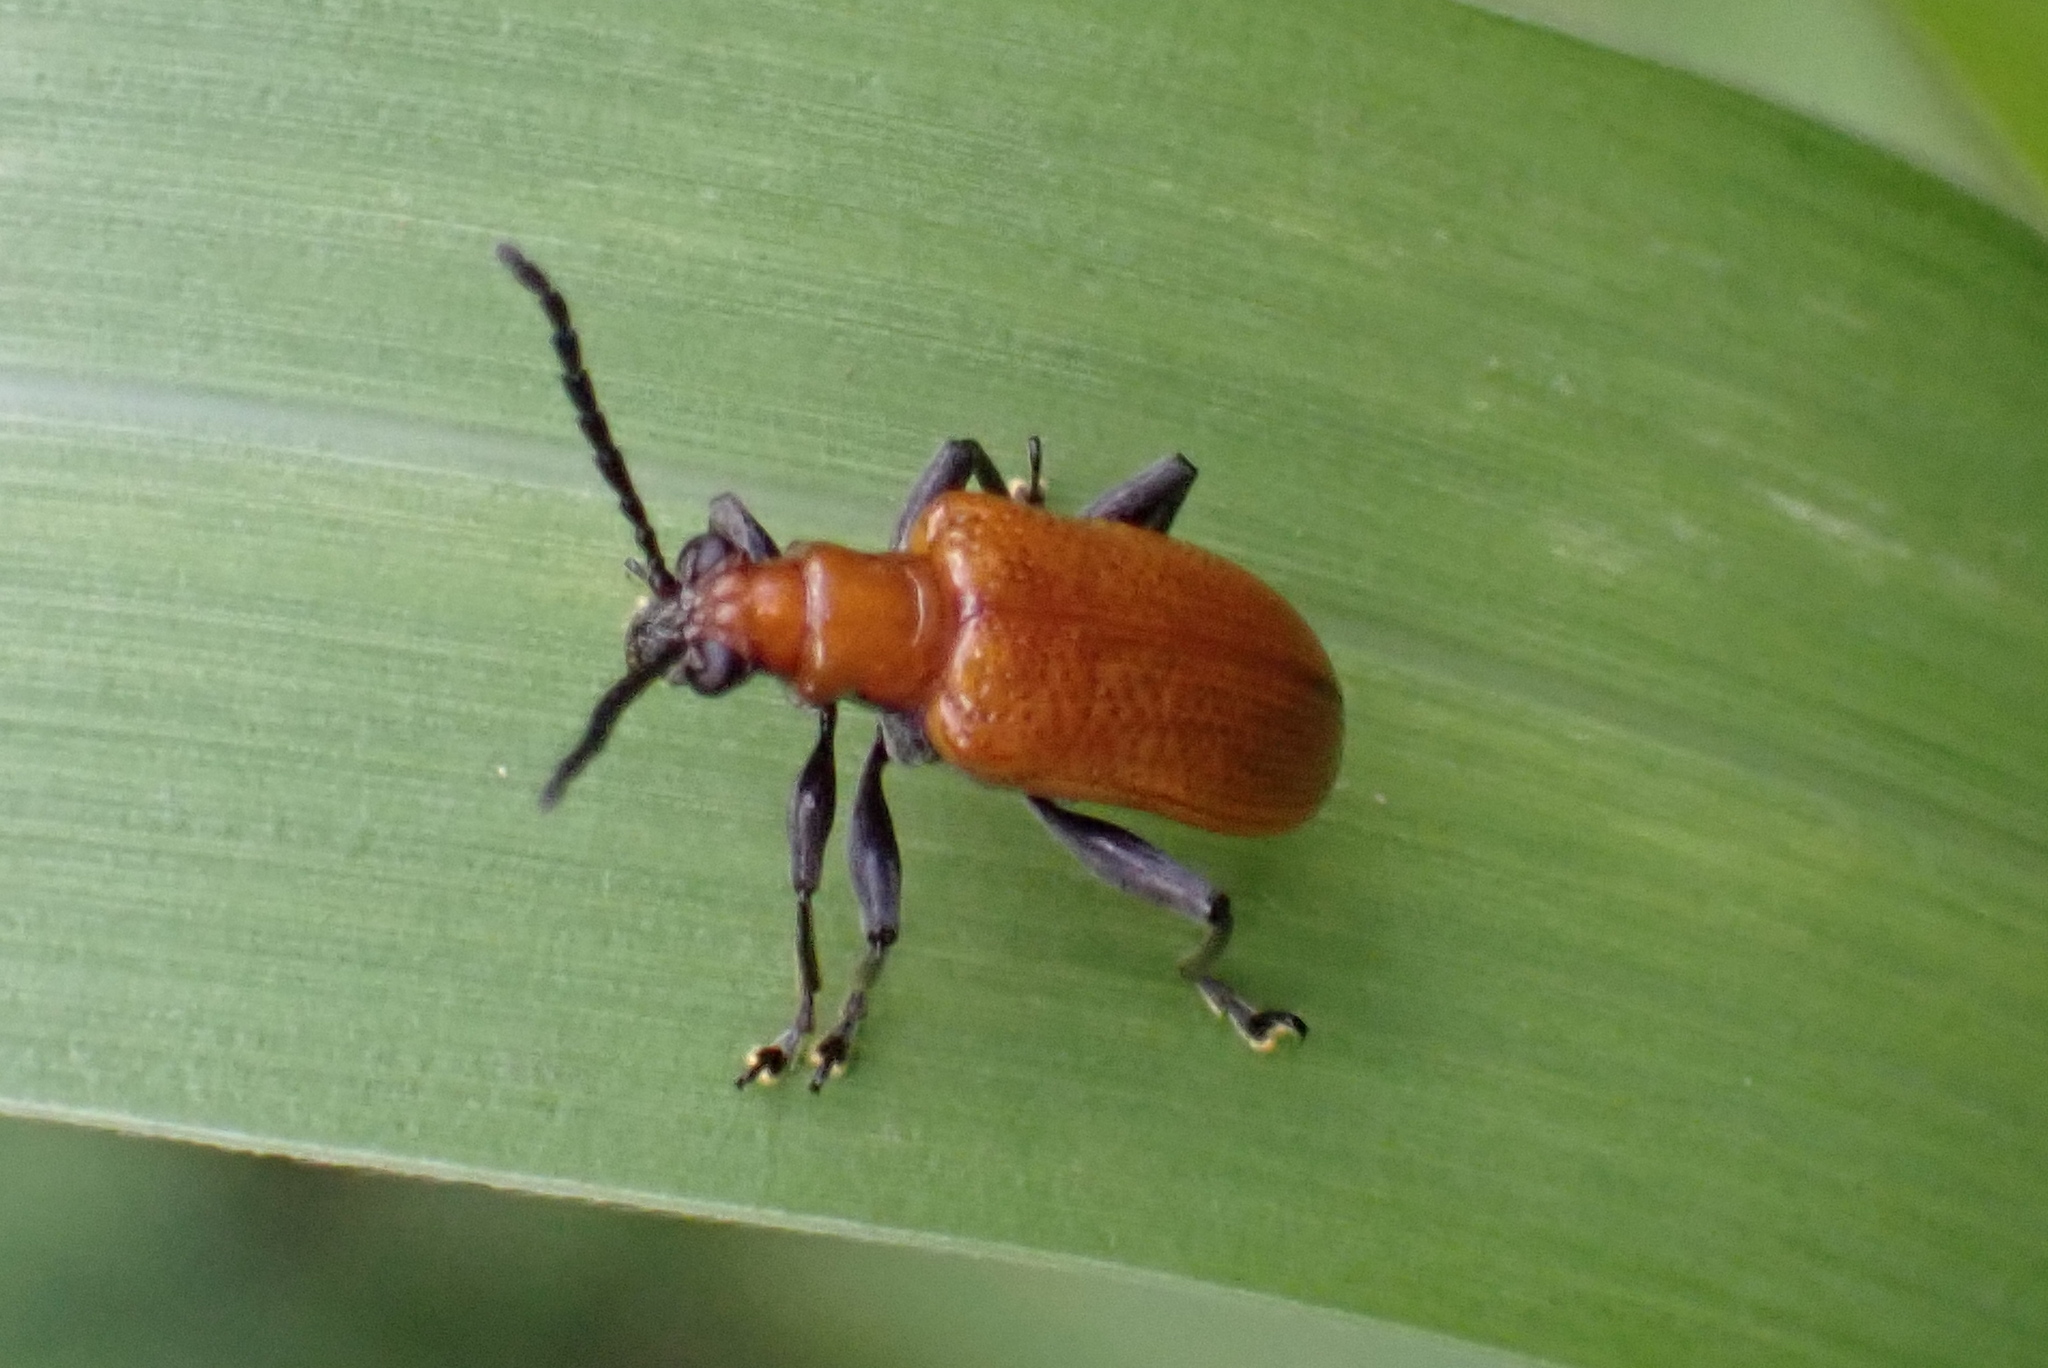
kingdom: Animalia
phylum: Arthropoda
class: Insecta
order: Coleoptera
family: Chrysomelidae
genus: Lema
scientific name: Lema
